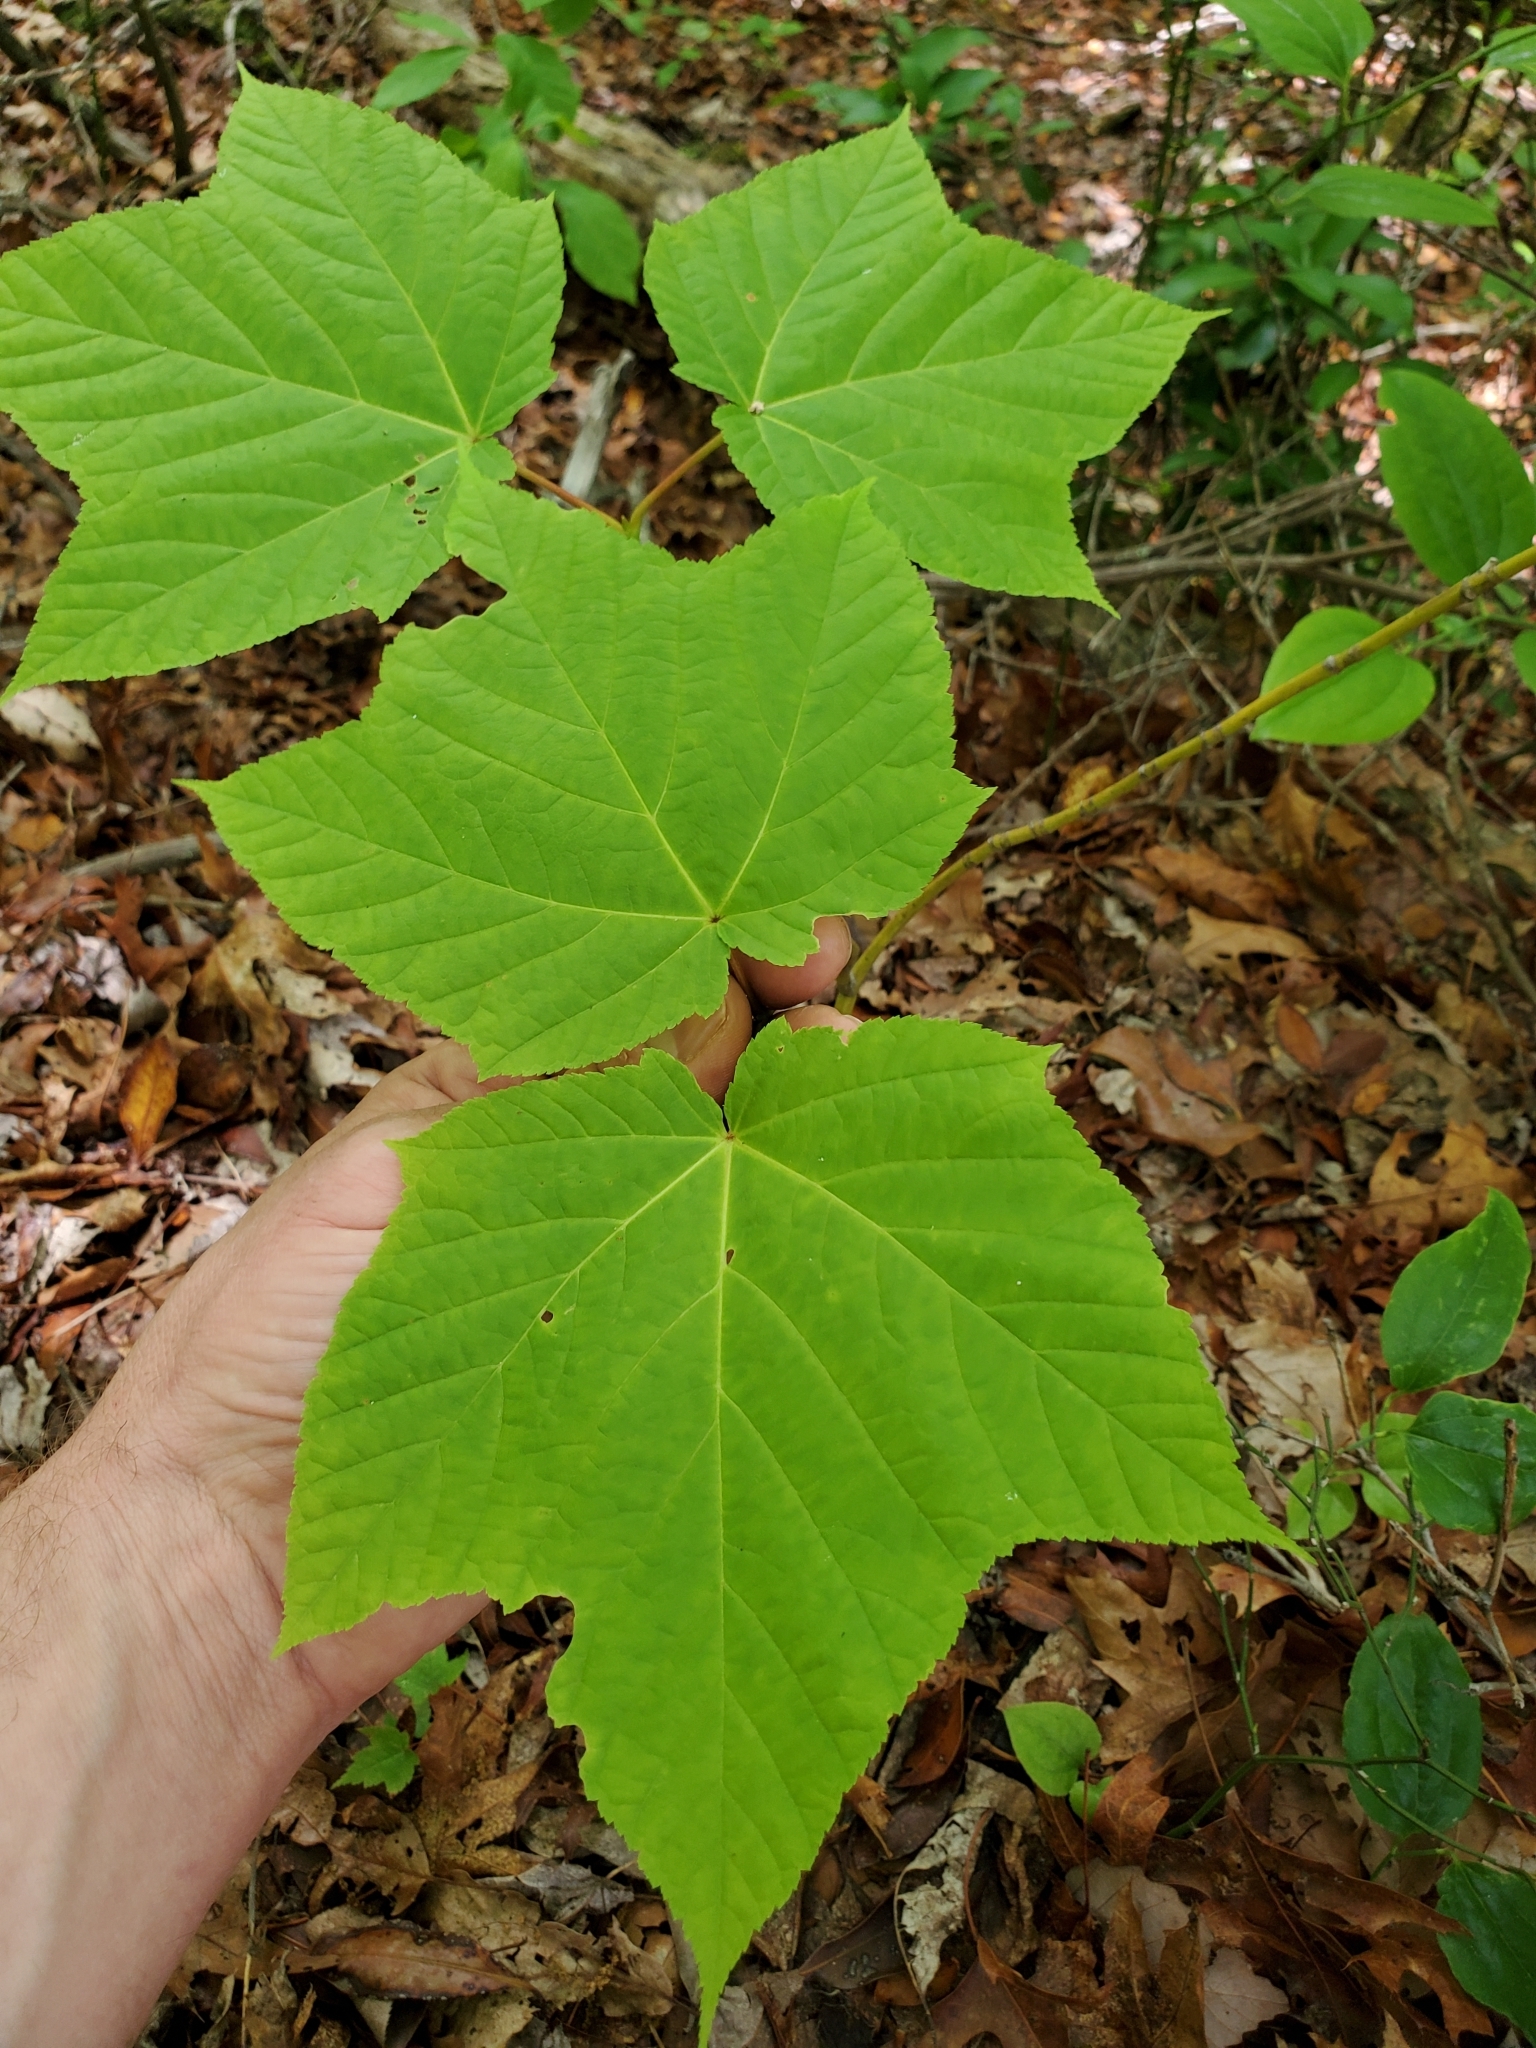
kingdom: Plantae
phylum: Tracheophyta
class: Magnoliopsida
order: Sapindales
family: Sapindaceae
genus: Acer
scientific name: Acer pensylvanicum
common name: Moosewood
